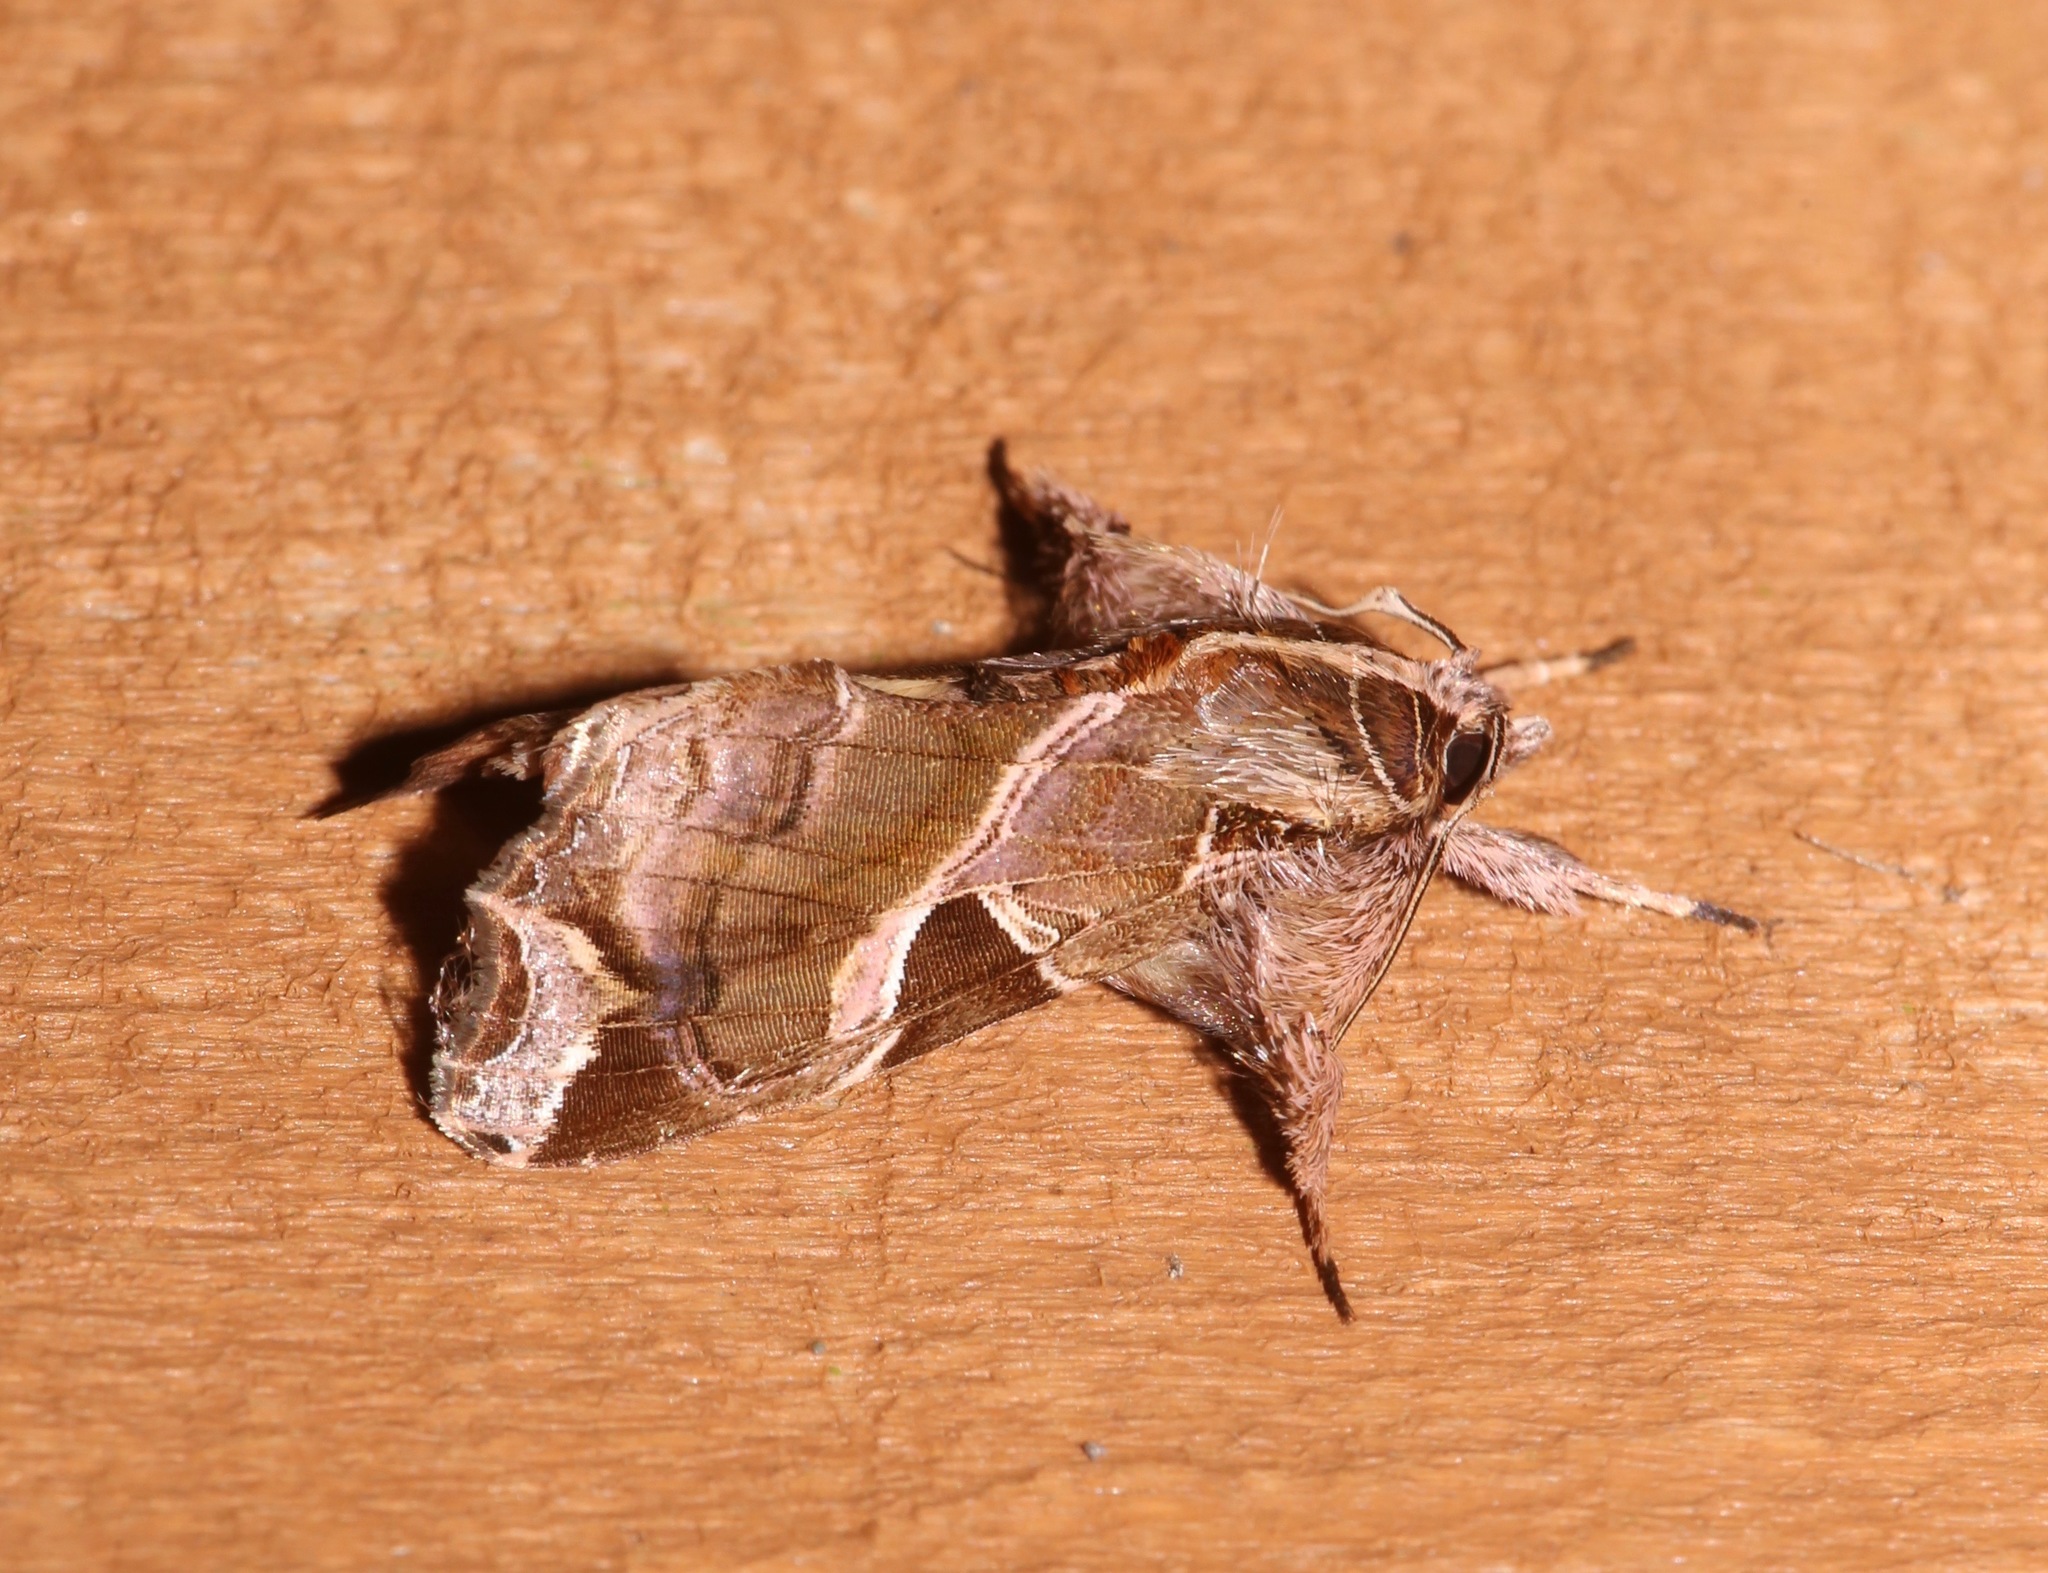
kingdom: Animalia
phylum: Arthropoda
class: Insecta
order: Lepidoptera
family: Noctuidae
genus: Callopistria
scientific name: Callopistria floridensis
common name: Florida fern moth
